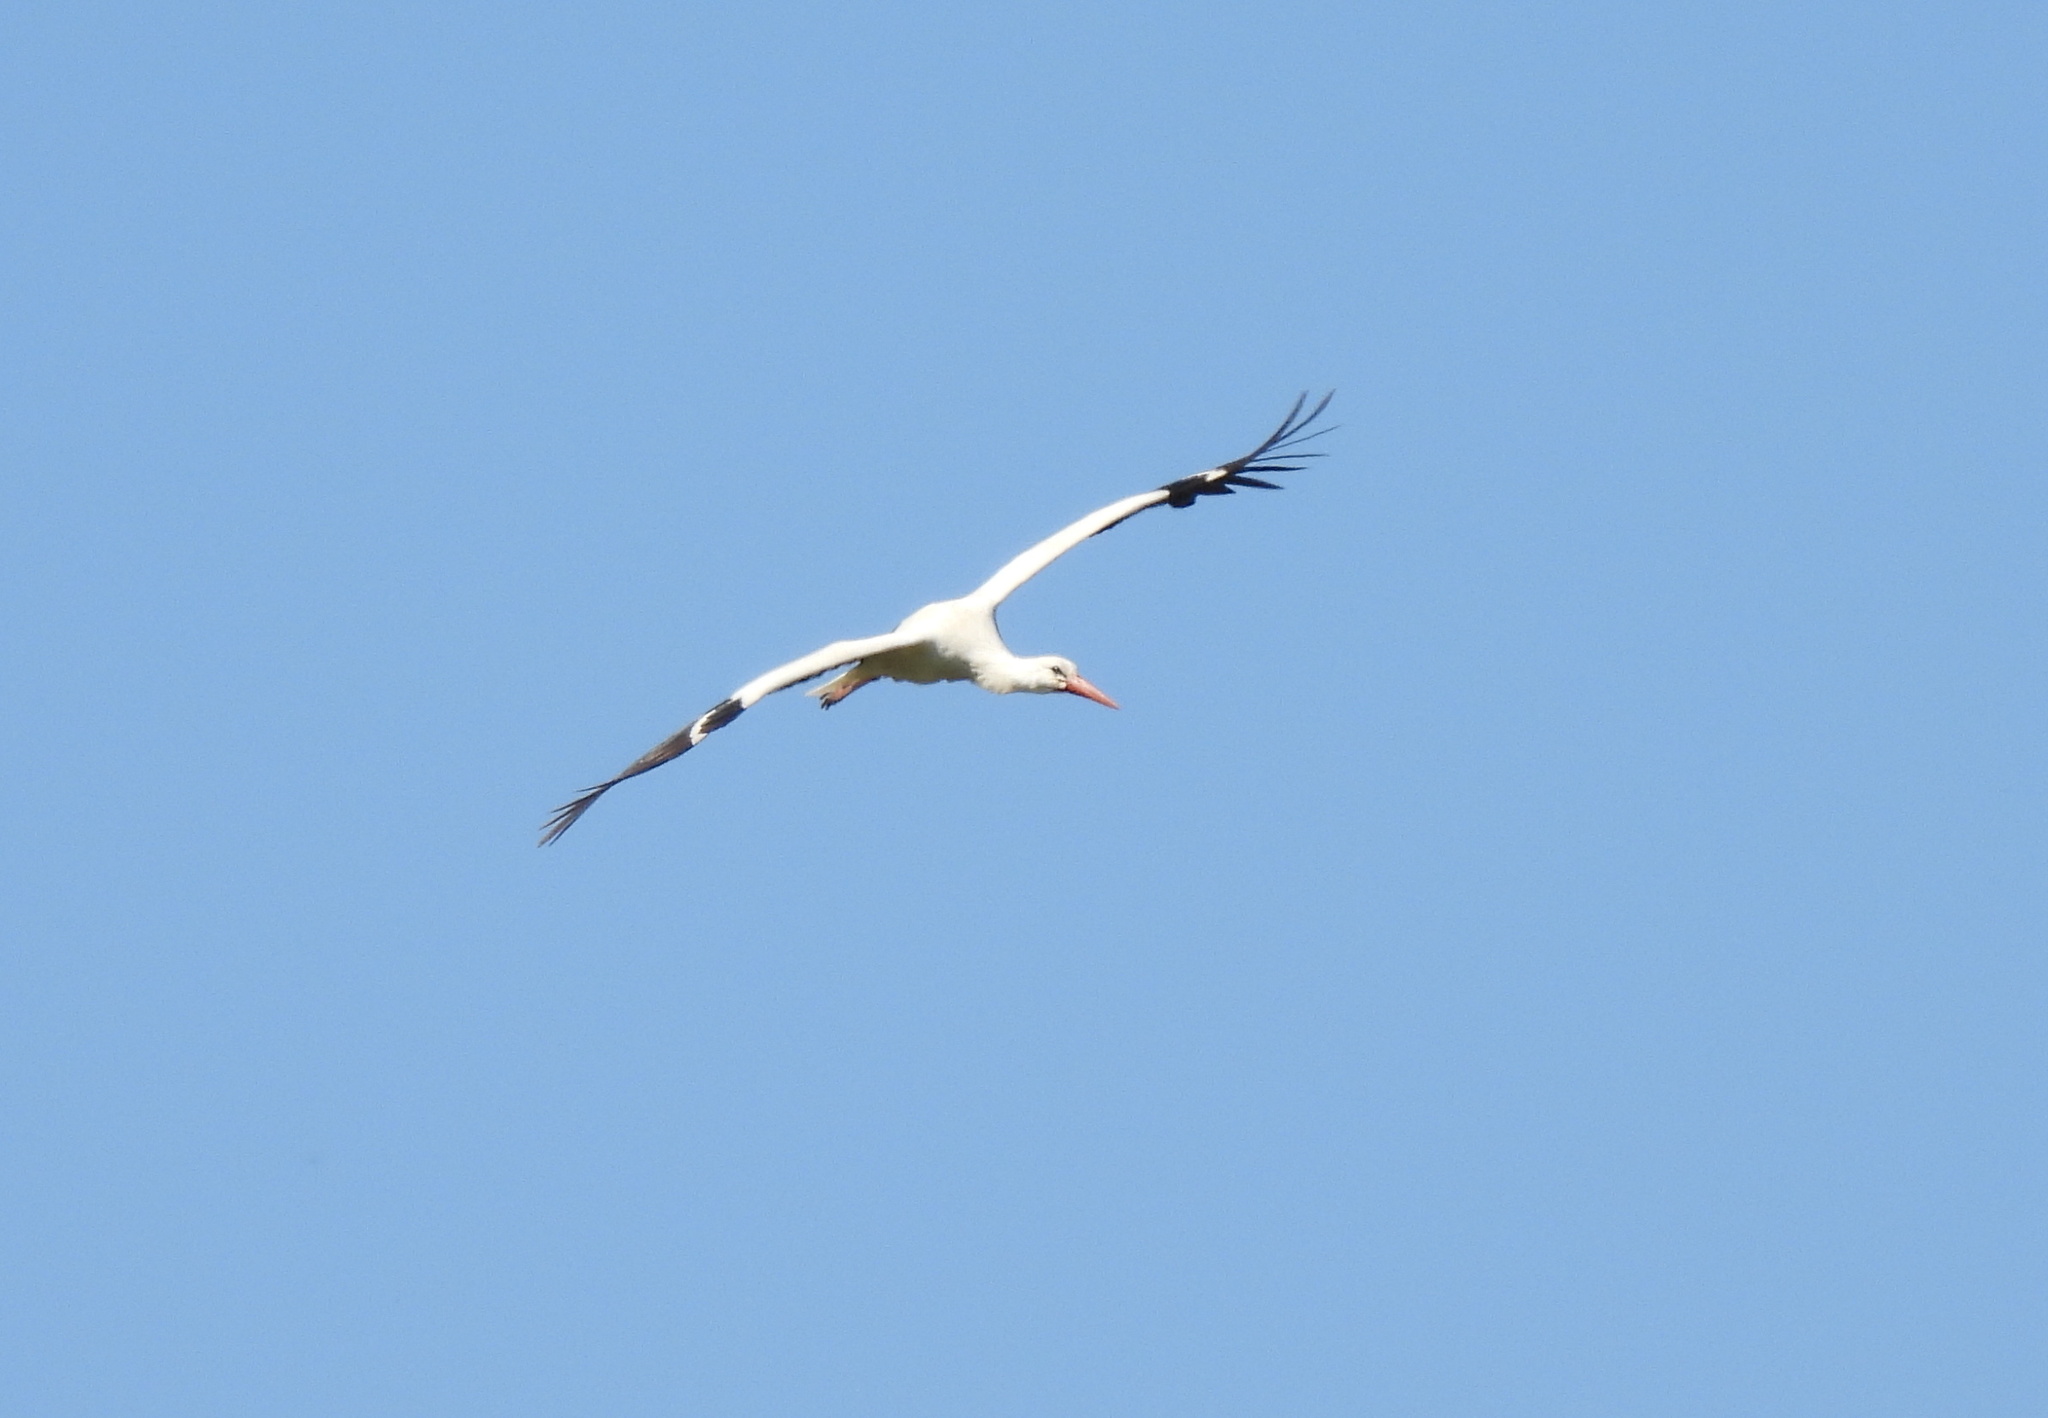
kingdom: Animalia
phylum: Chordata
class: Aves
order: Ciconiiformes
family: Ciconiidae
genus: Ciconia
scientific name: Ciconia ciconia
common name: White stork
